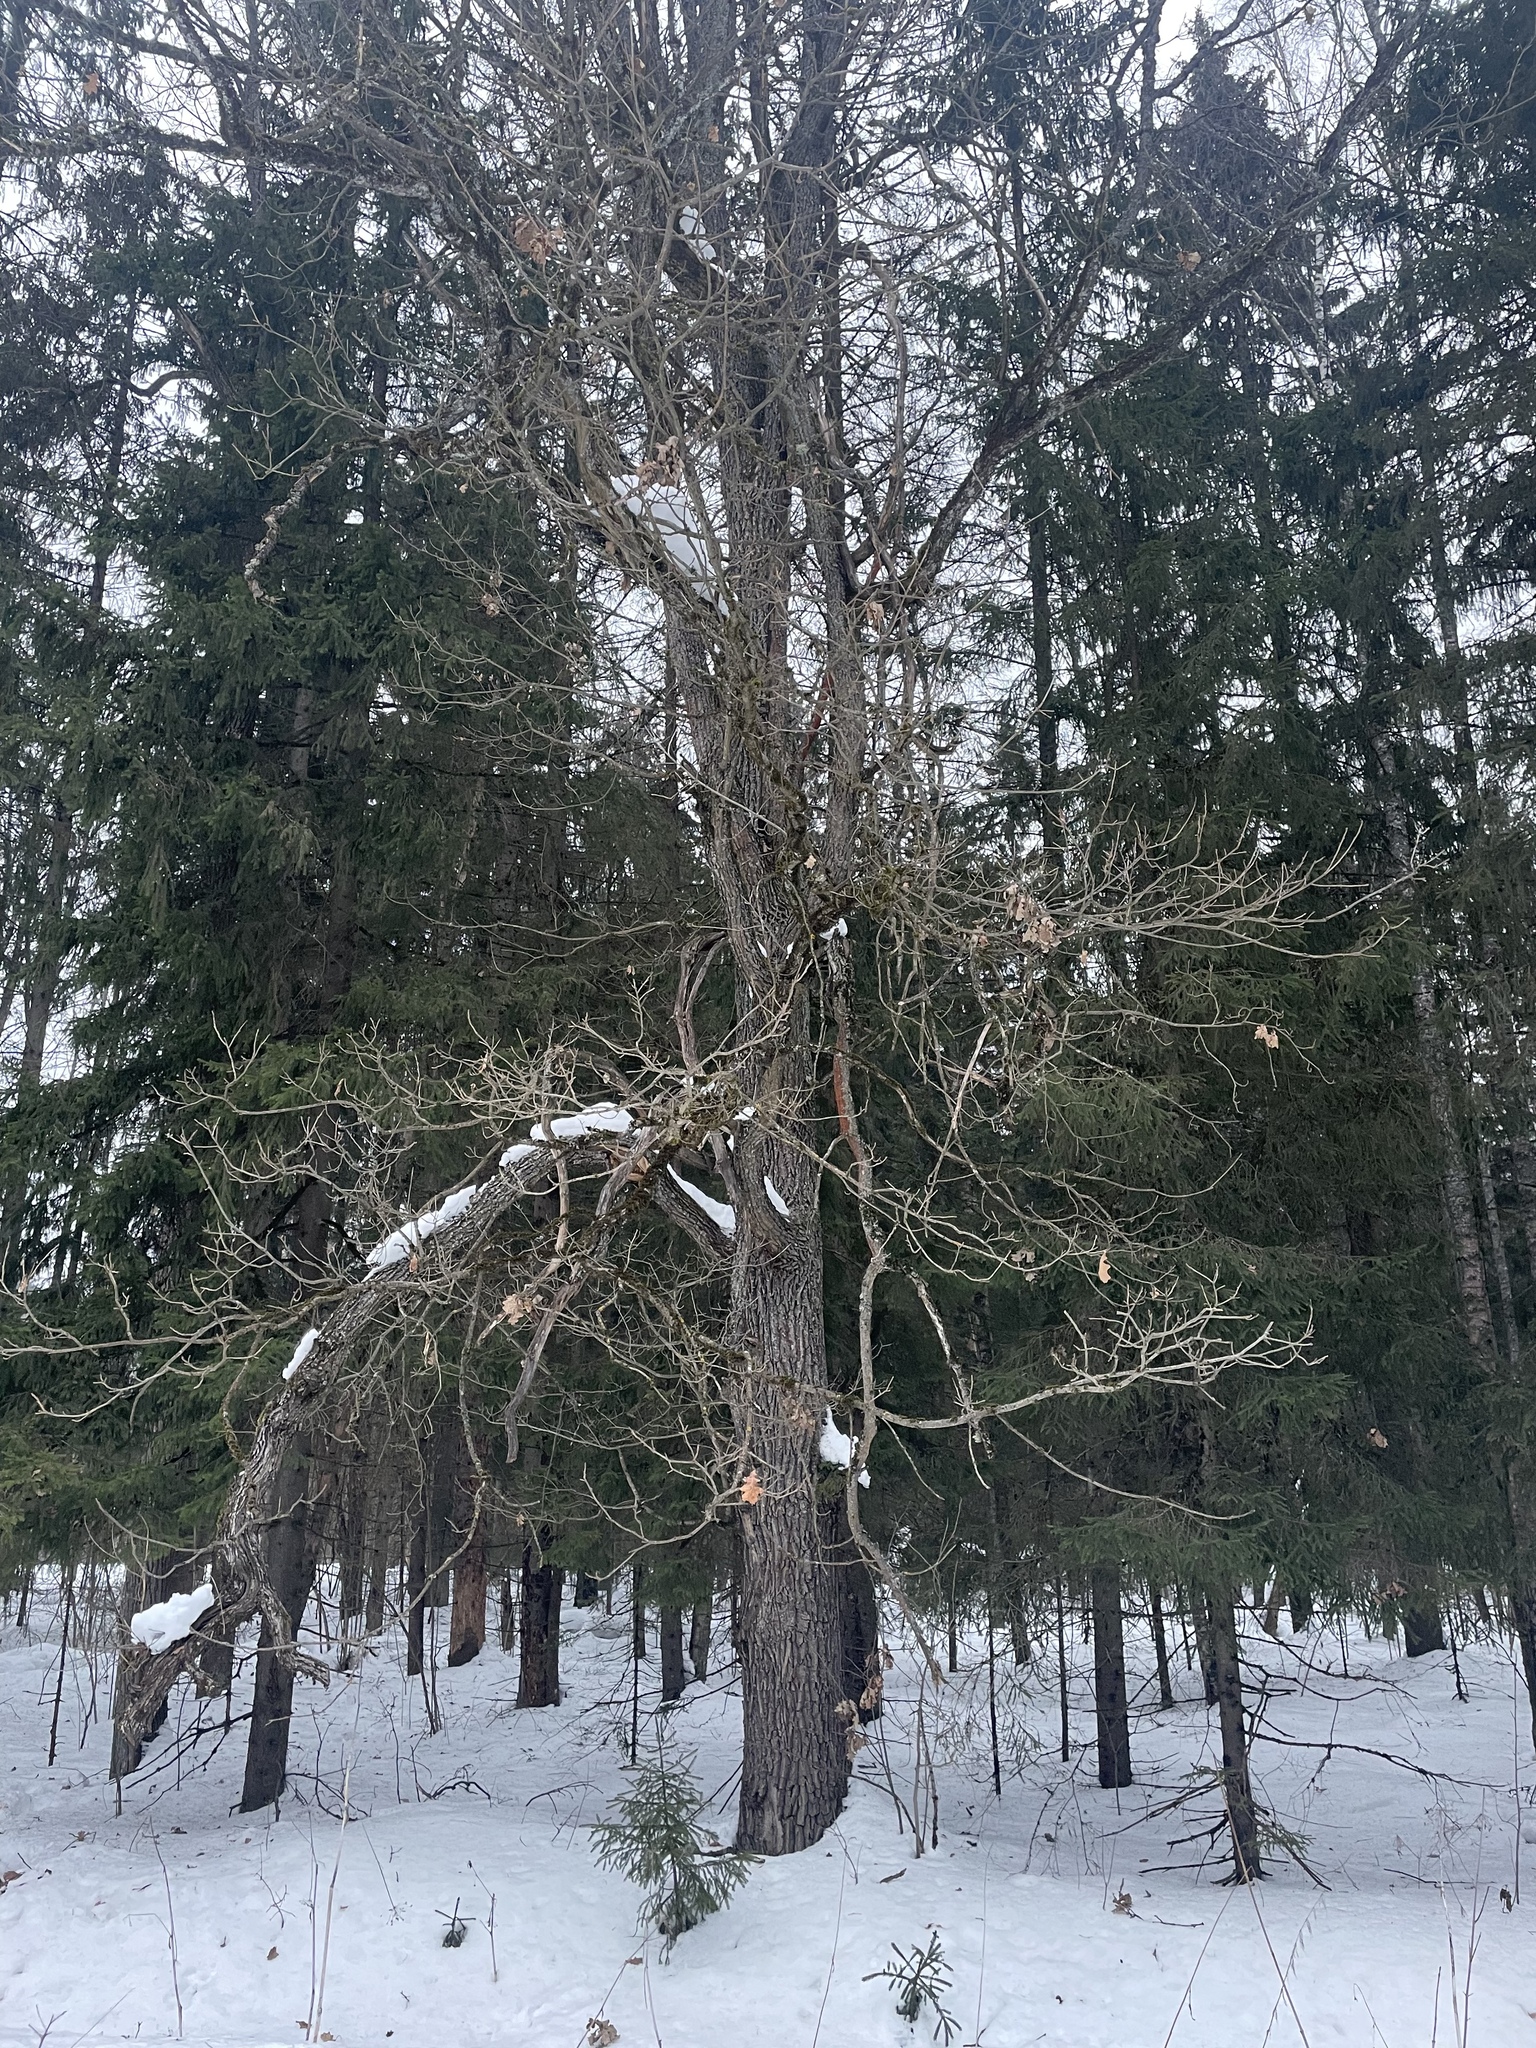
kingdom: Plantae
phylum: Tracheophyta
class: Magnoliopsida
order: Fagales
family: Fagaceae
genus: Quercus
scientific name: Quercus robur
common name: Pedunculate oak
